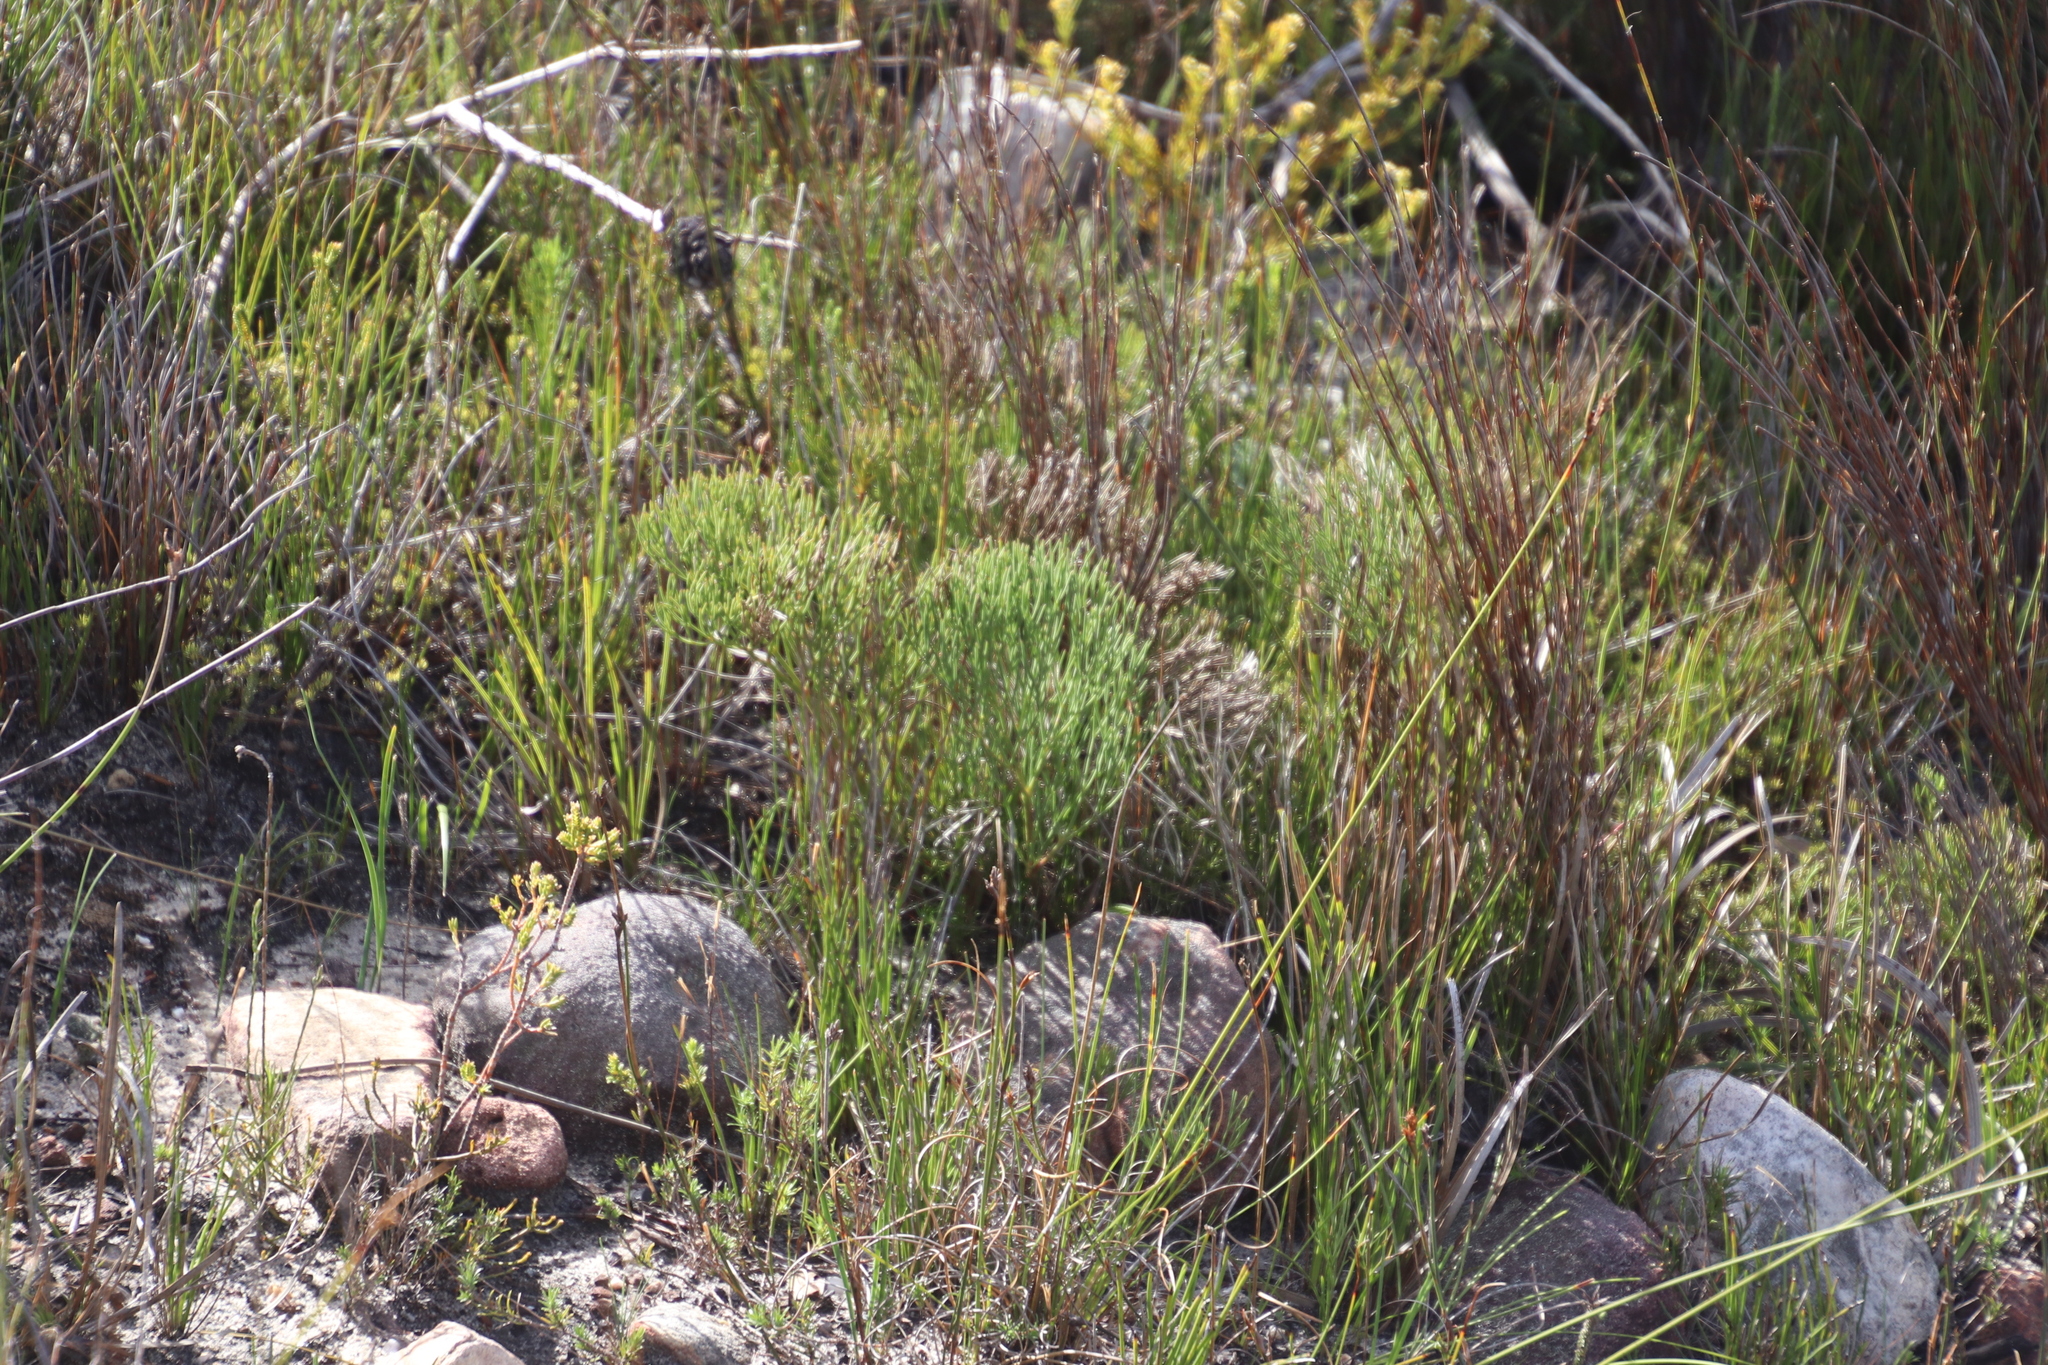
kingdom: Plantae
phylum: Tracheophyta
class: Magnoliopsida
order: Apiales
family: Apiaceae
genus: Nanobubon
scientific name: Nanobubon strictum
